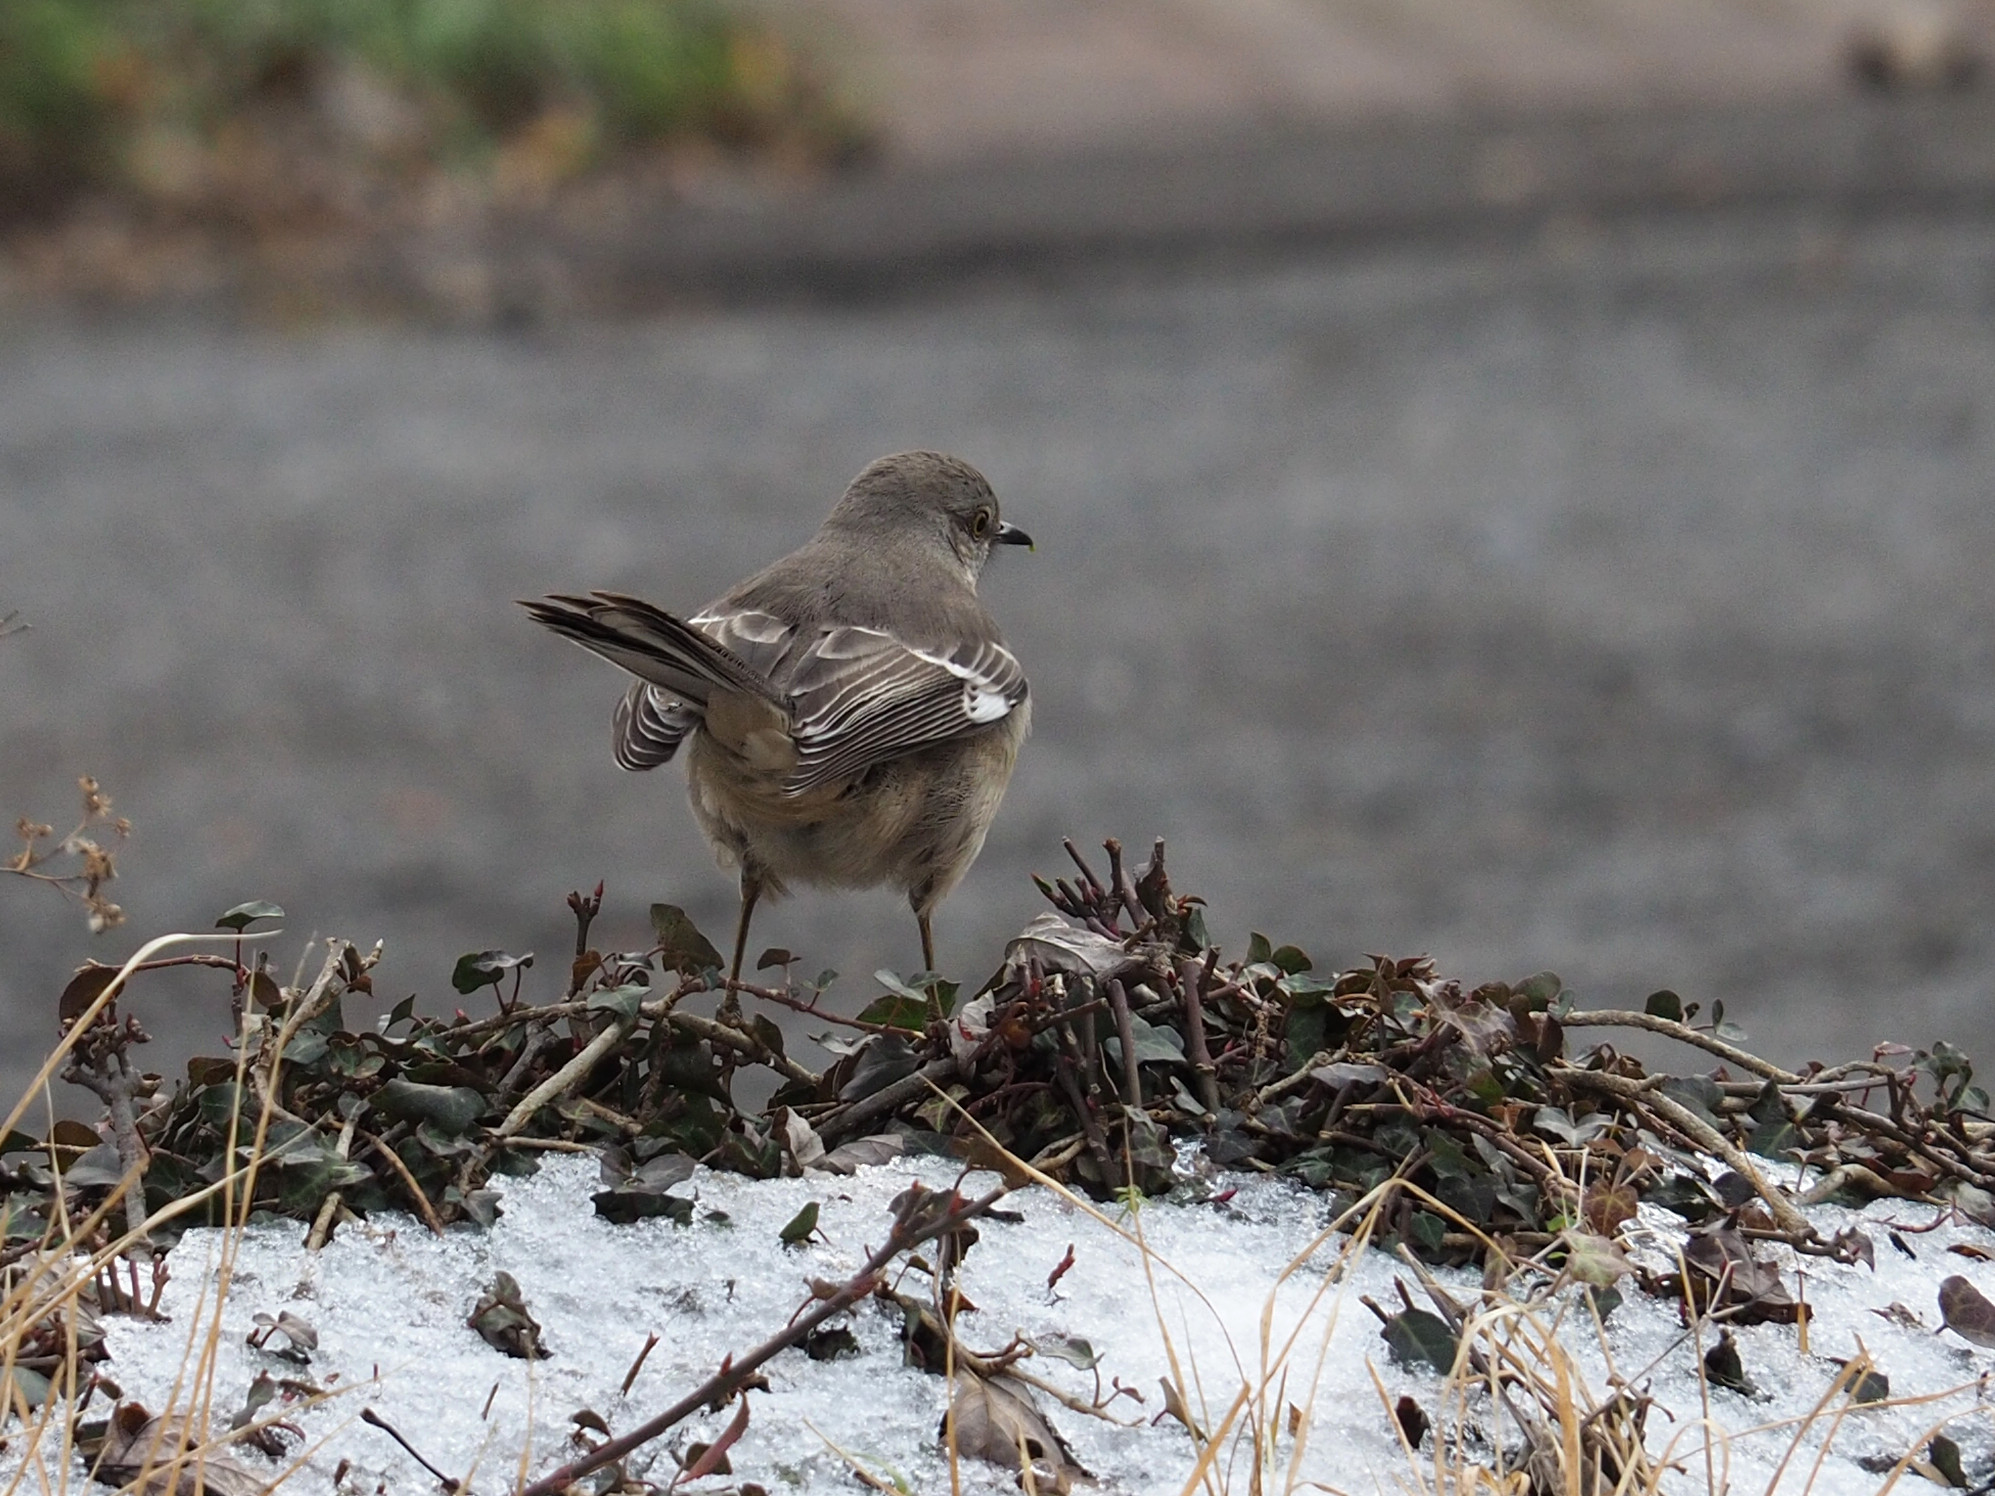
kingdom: Animalia
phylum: Chordata
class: Aves
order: Passeriformes
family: Mimidae
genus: Mimus
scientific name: Mimus polyglottos
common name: Northern mockingbird
